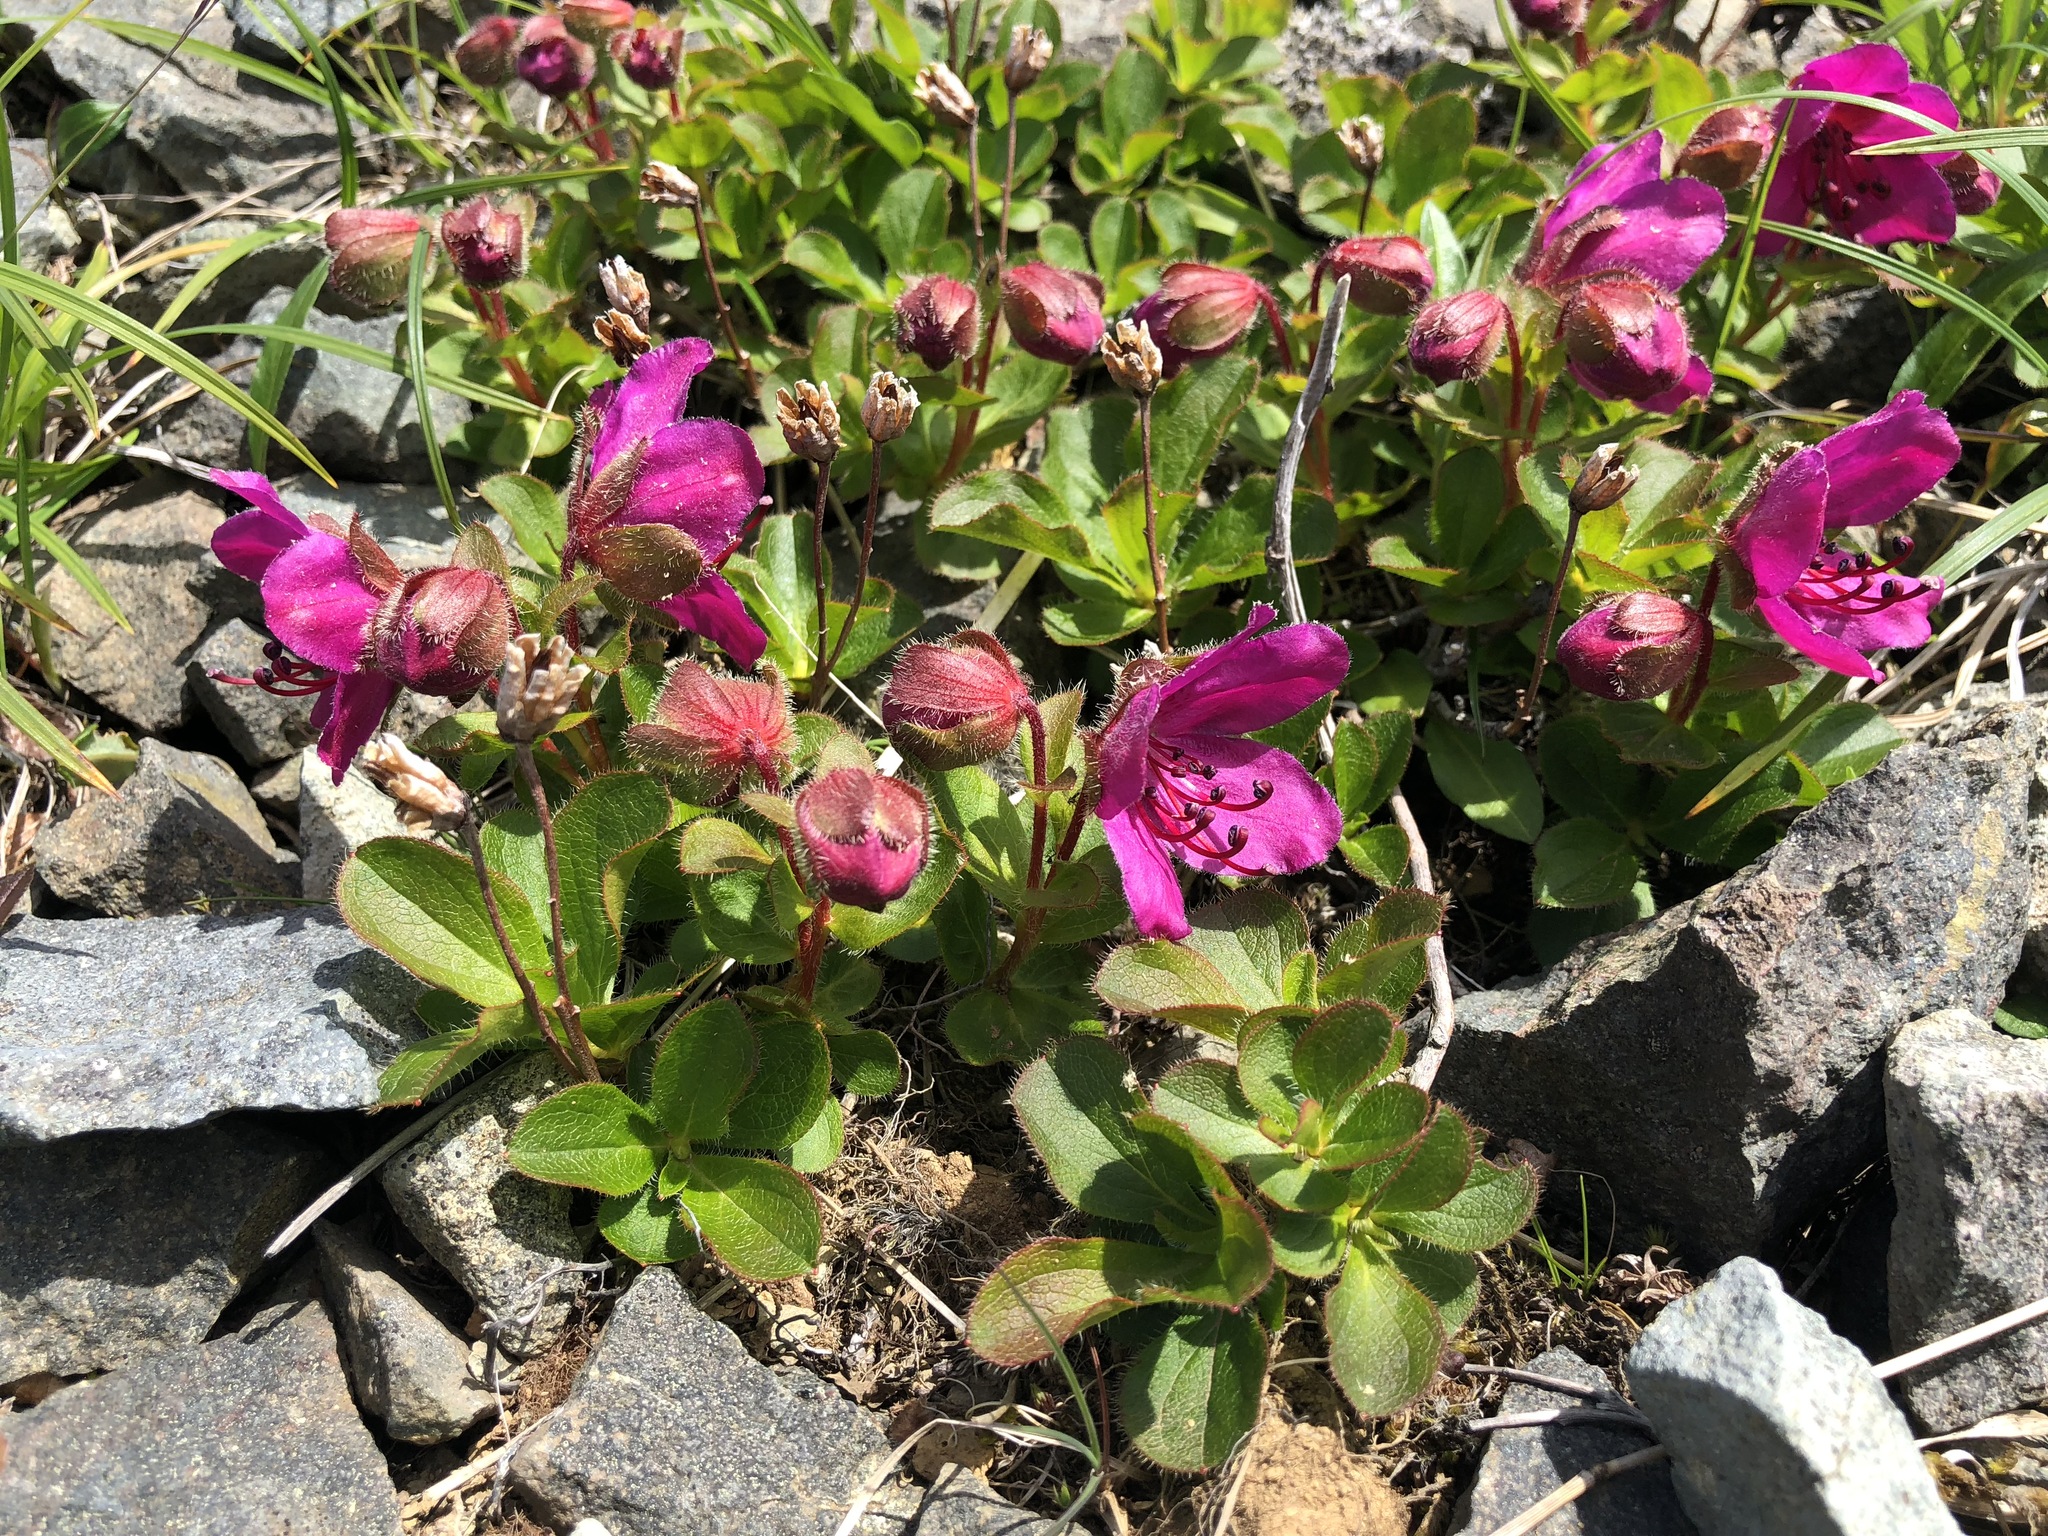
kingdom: Plantae
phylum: Tracheophyta
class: Magnoliopsida
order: Ericales
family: Ericaceae
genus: Rhododendron
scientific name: Rhododendron camtschaticum
